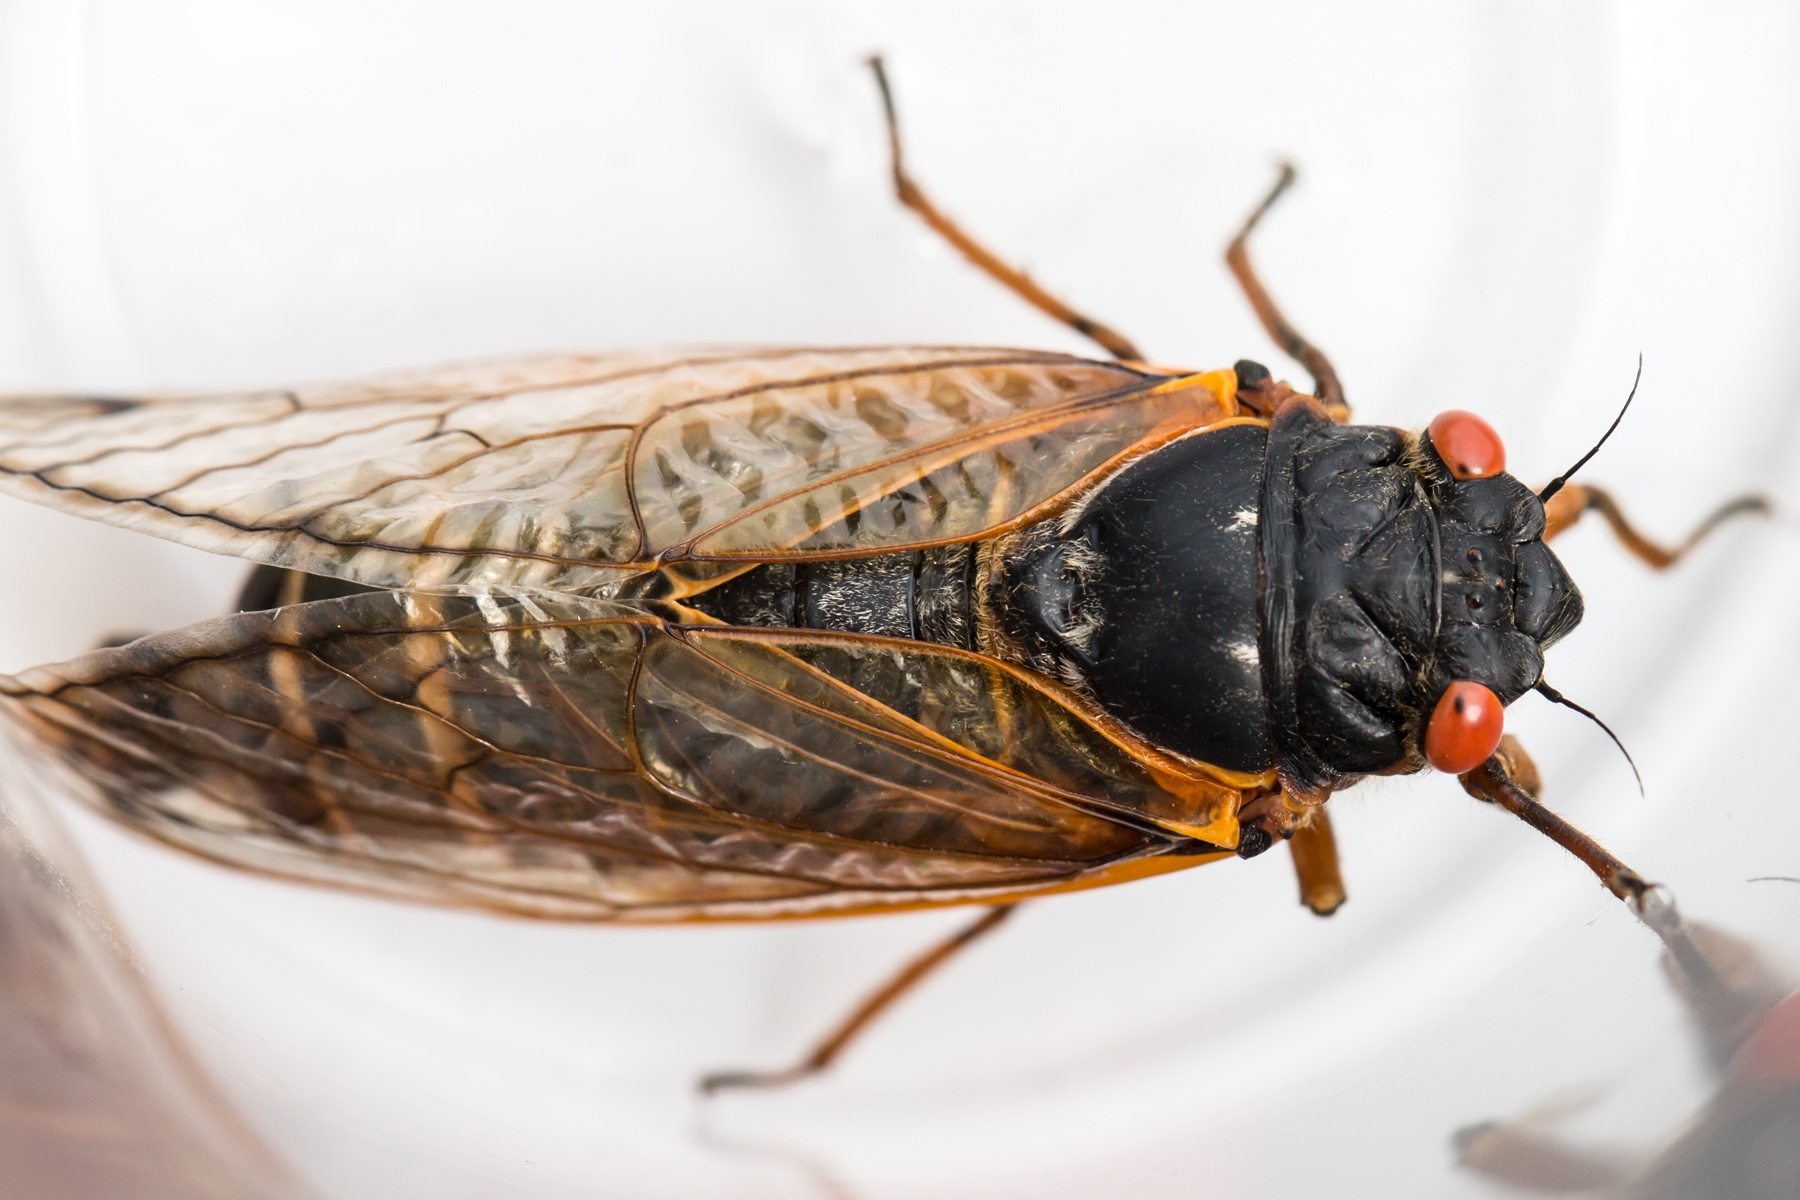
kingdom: Animalia
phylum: Arthropoda
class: Insecta
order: Hemiptera
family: Cicadidae
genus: Magicicada
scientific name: Magicicada septendecim
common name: Periodical cicada
